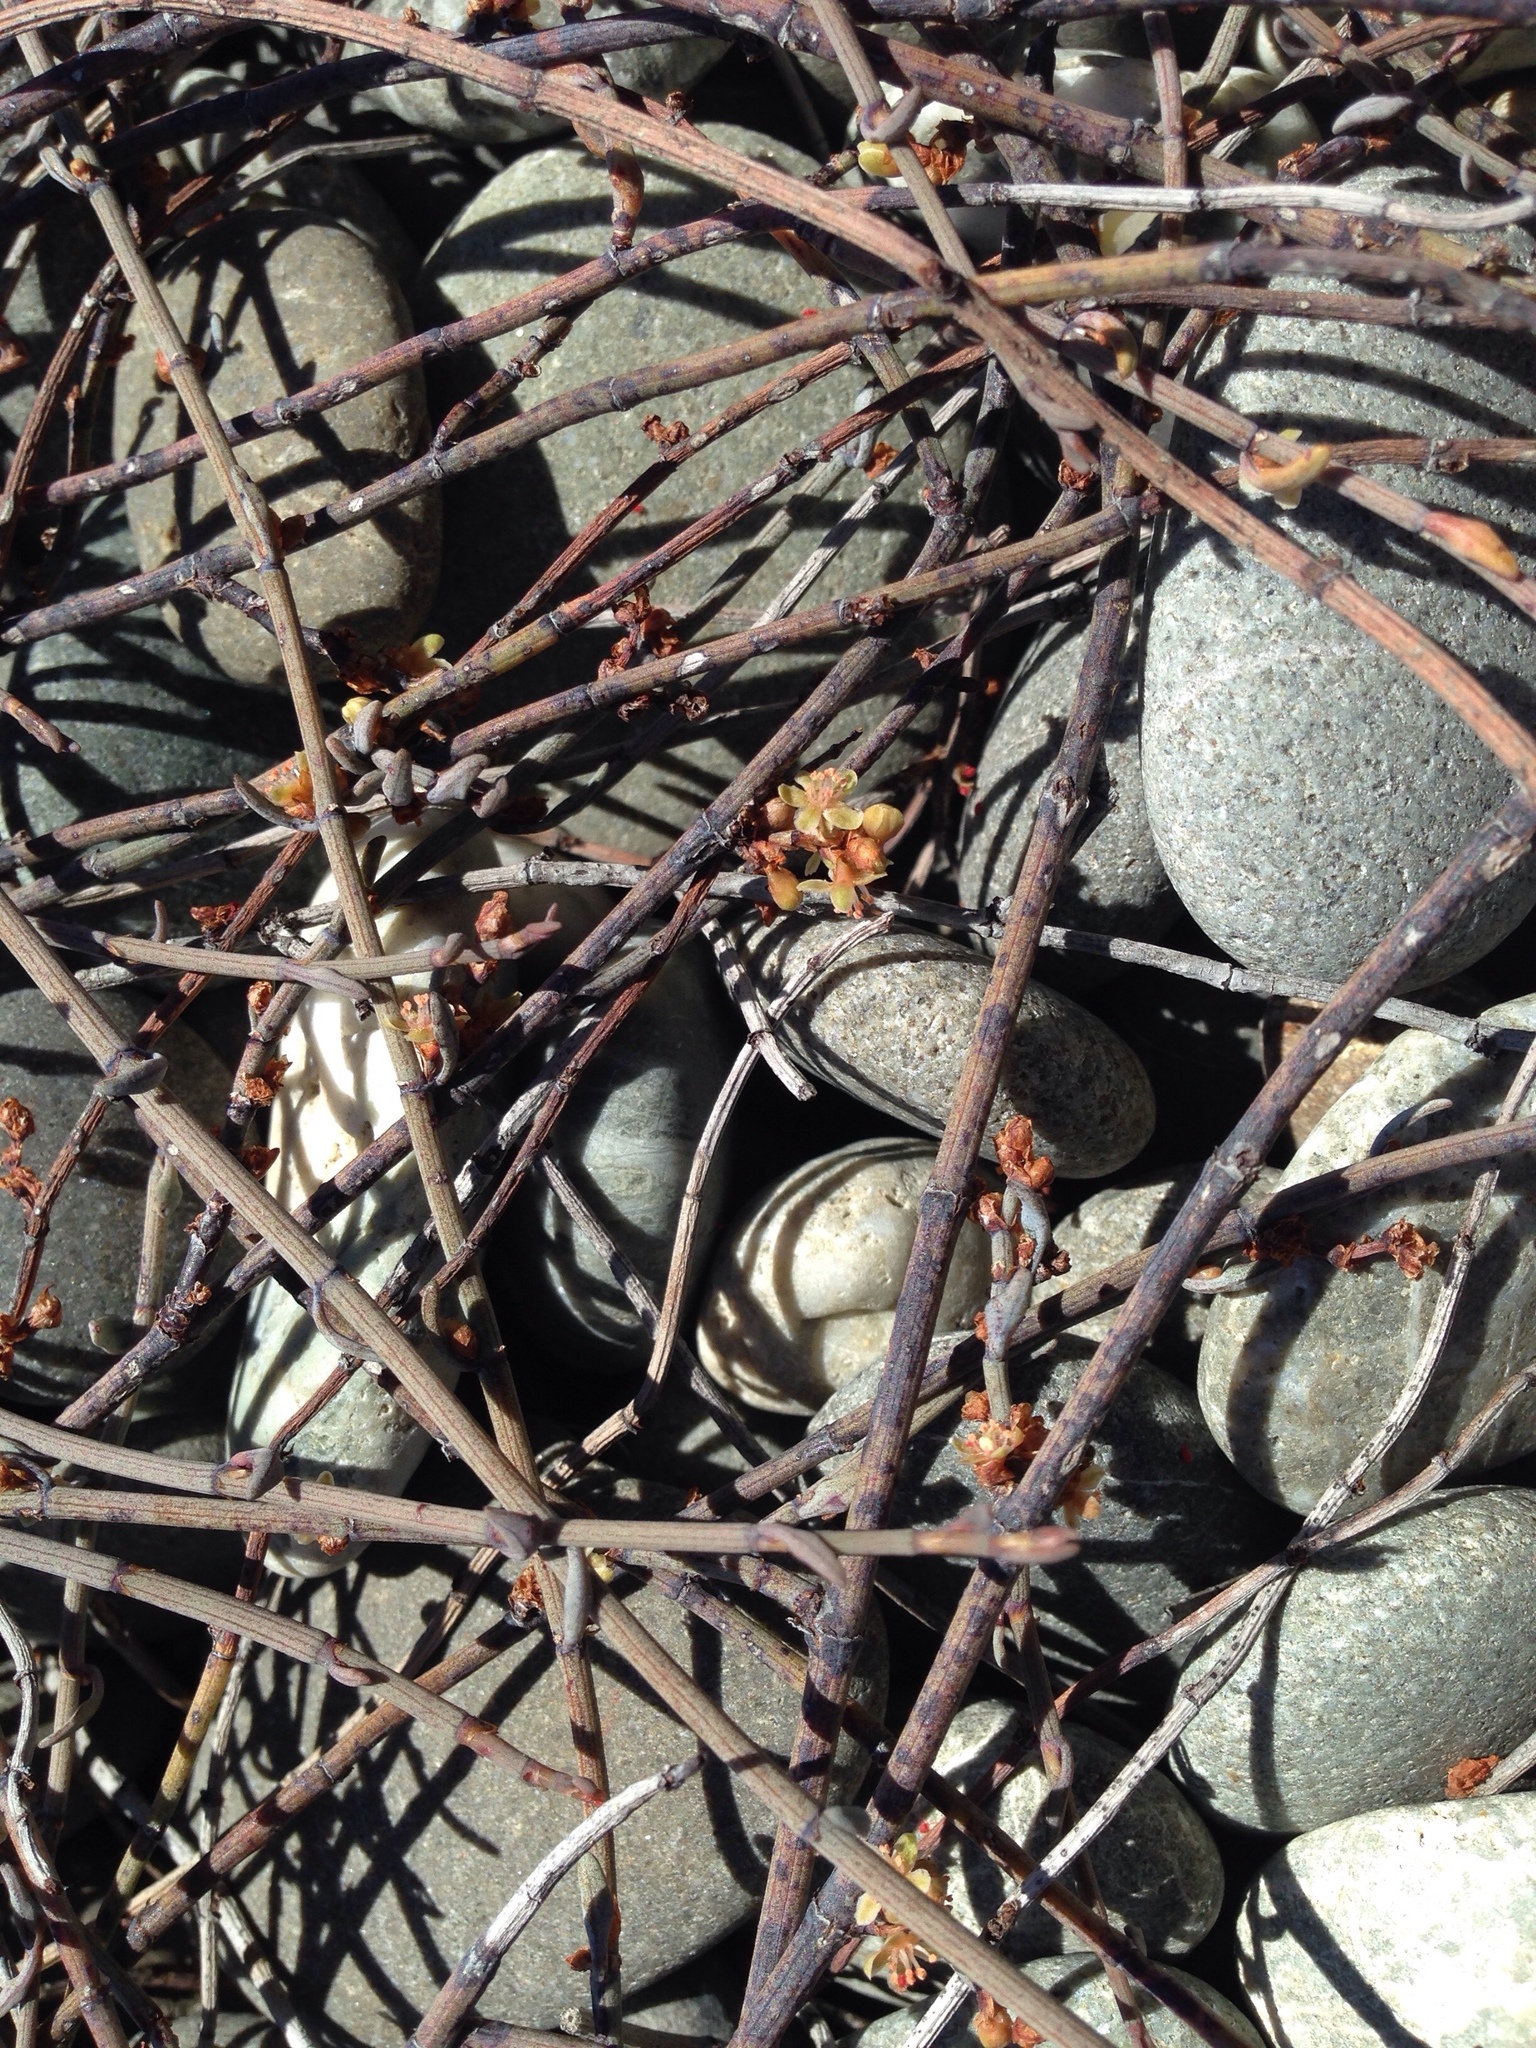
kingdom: Plantae
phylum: Tracheophyta
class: Magnoliopsida
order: Caryophyllales
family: Polygonaceae
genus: Muehlenbeckia
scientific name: Muehlenbeckia ephedroides
